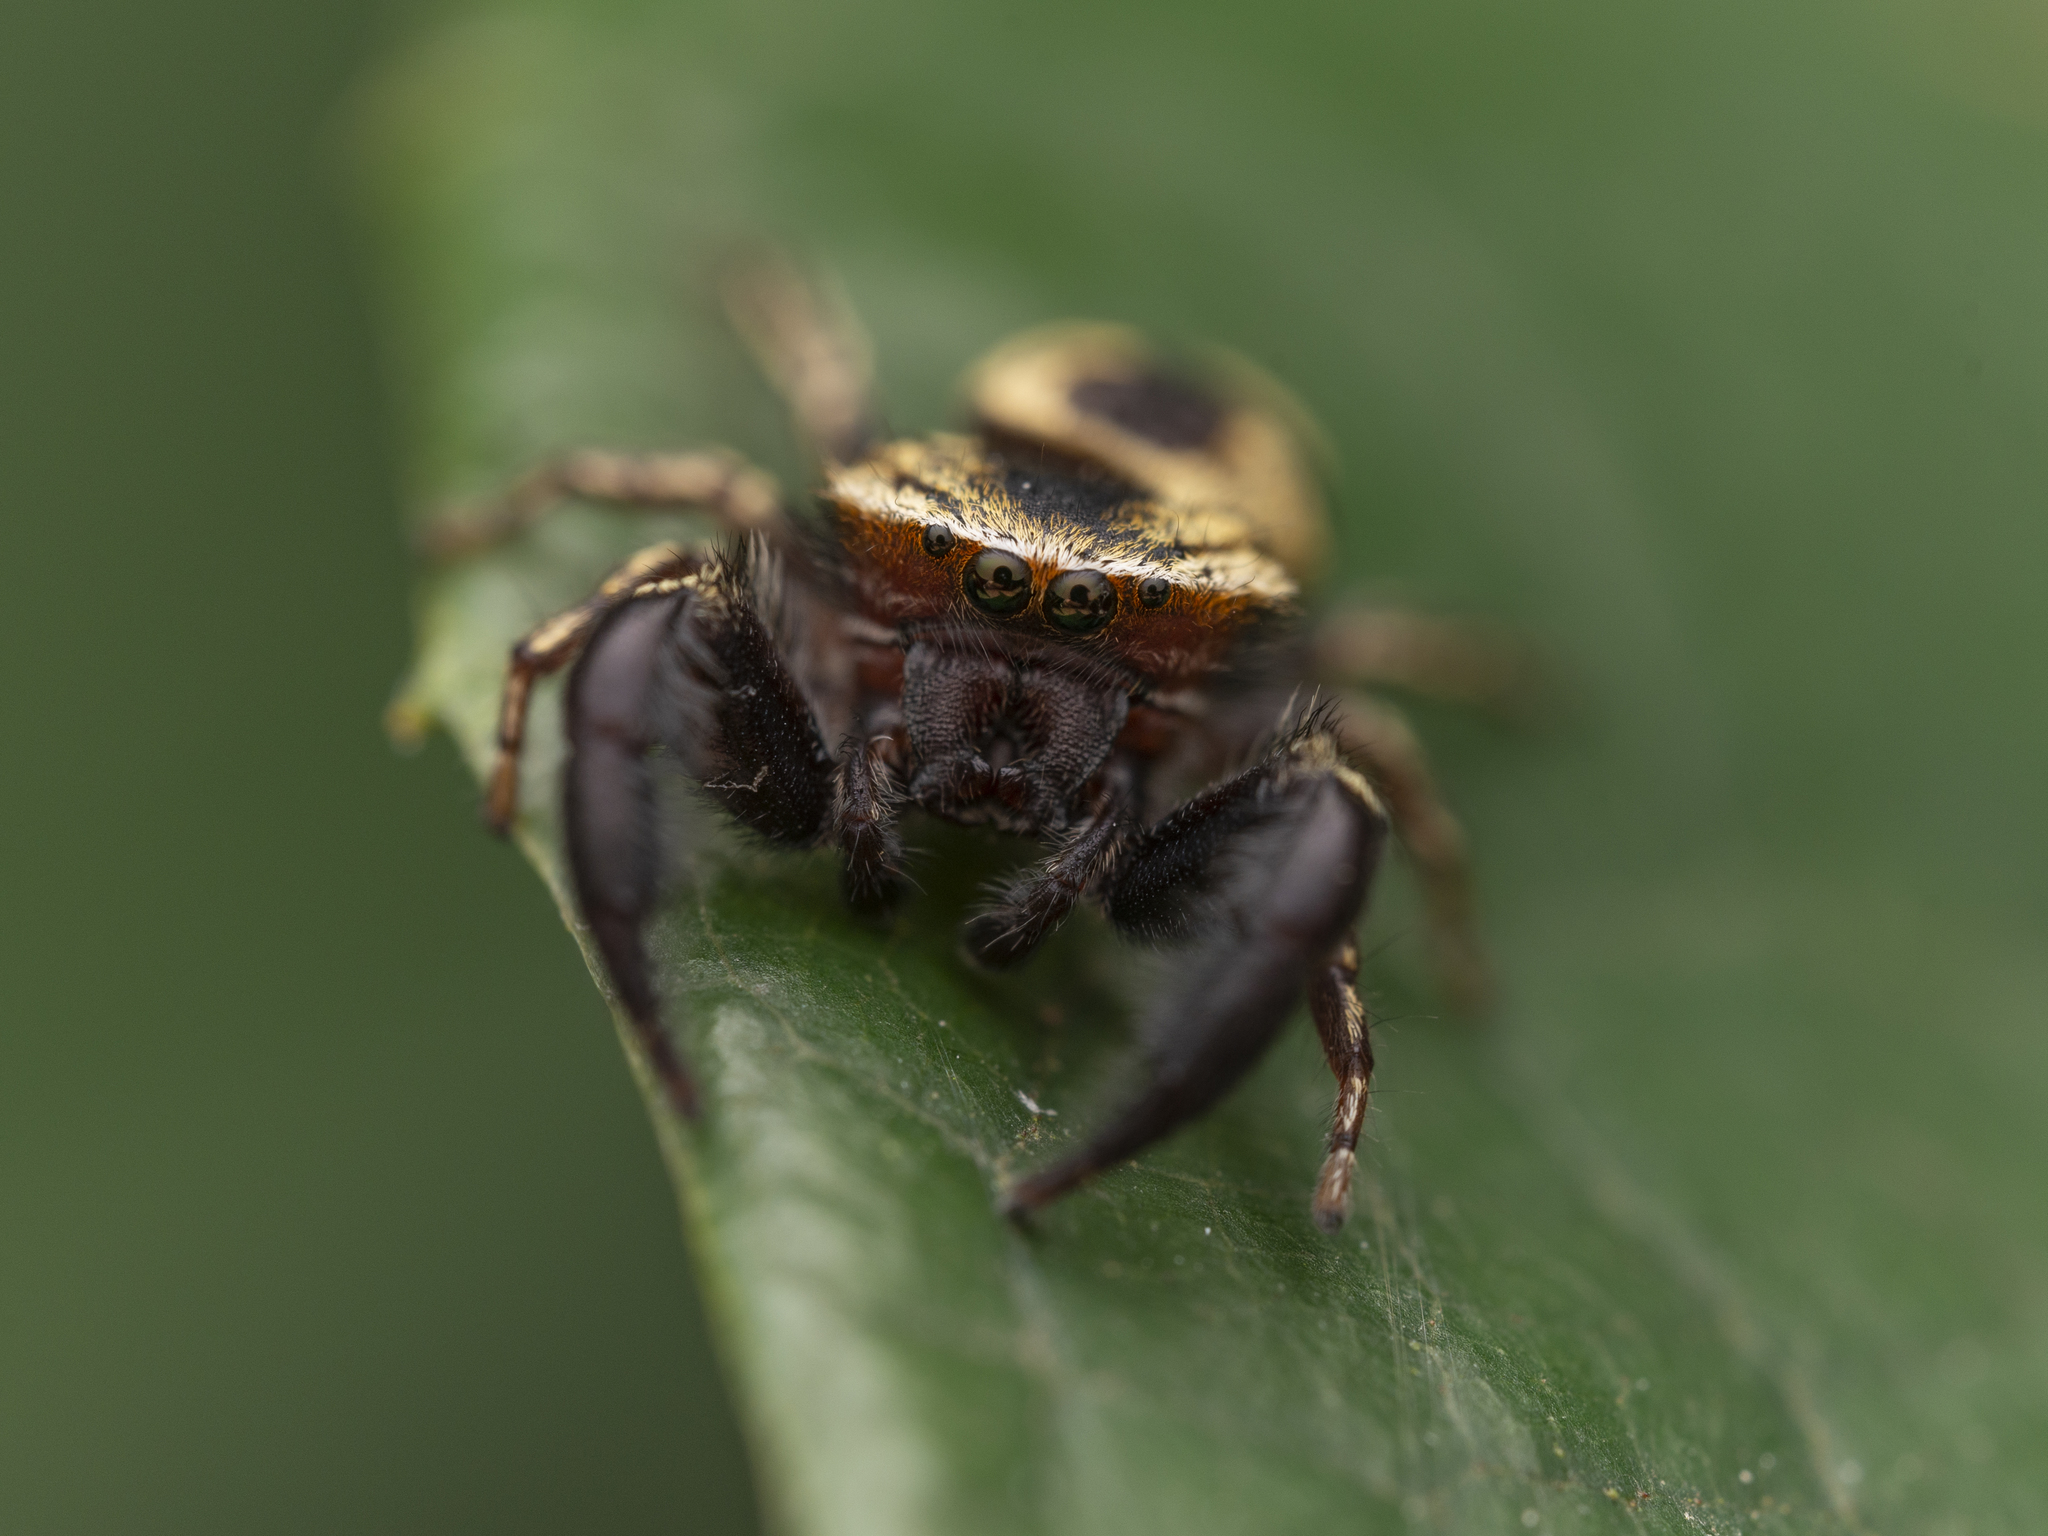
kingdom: Animalia
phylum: Arthropoda
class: Arachnida
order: Araneae
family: Salticidae
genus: Rhene
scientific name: Rhene flavicomans
